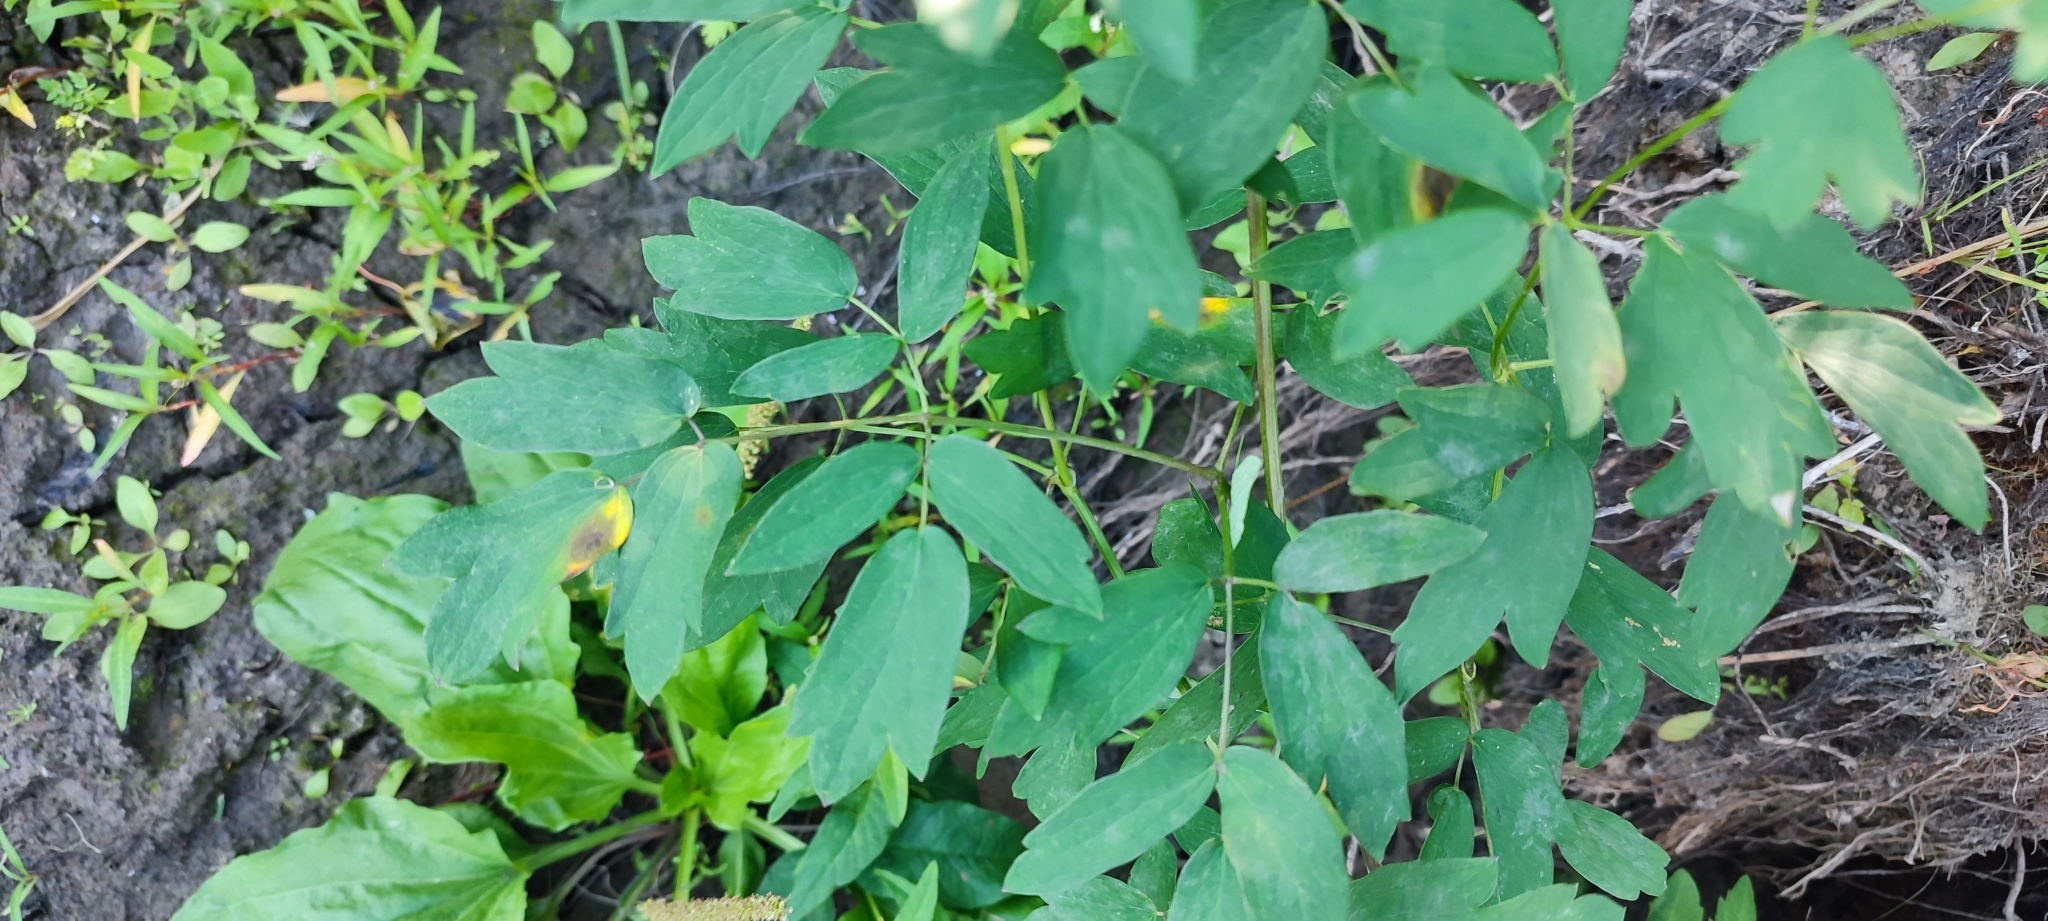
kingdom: Plantae
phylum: Tracheophyta
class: Magnoliopsida
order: Ranunculales
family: Ranunculaceae
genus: Thalictrum
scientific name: Thalictrum flavum
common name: Common meadow-rue
